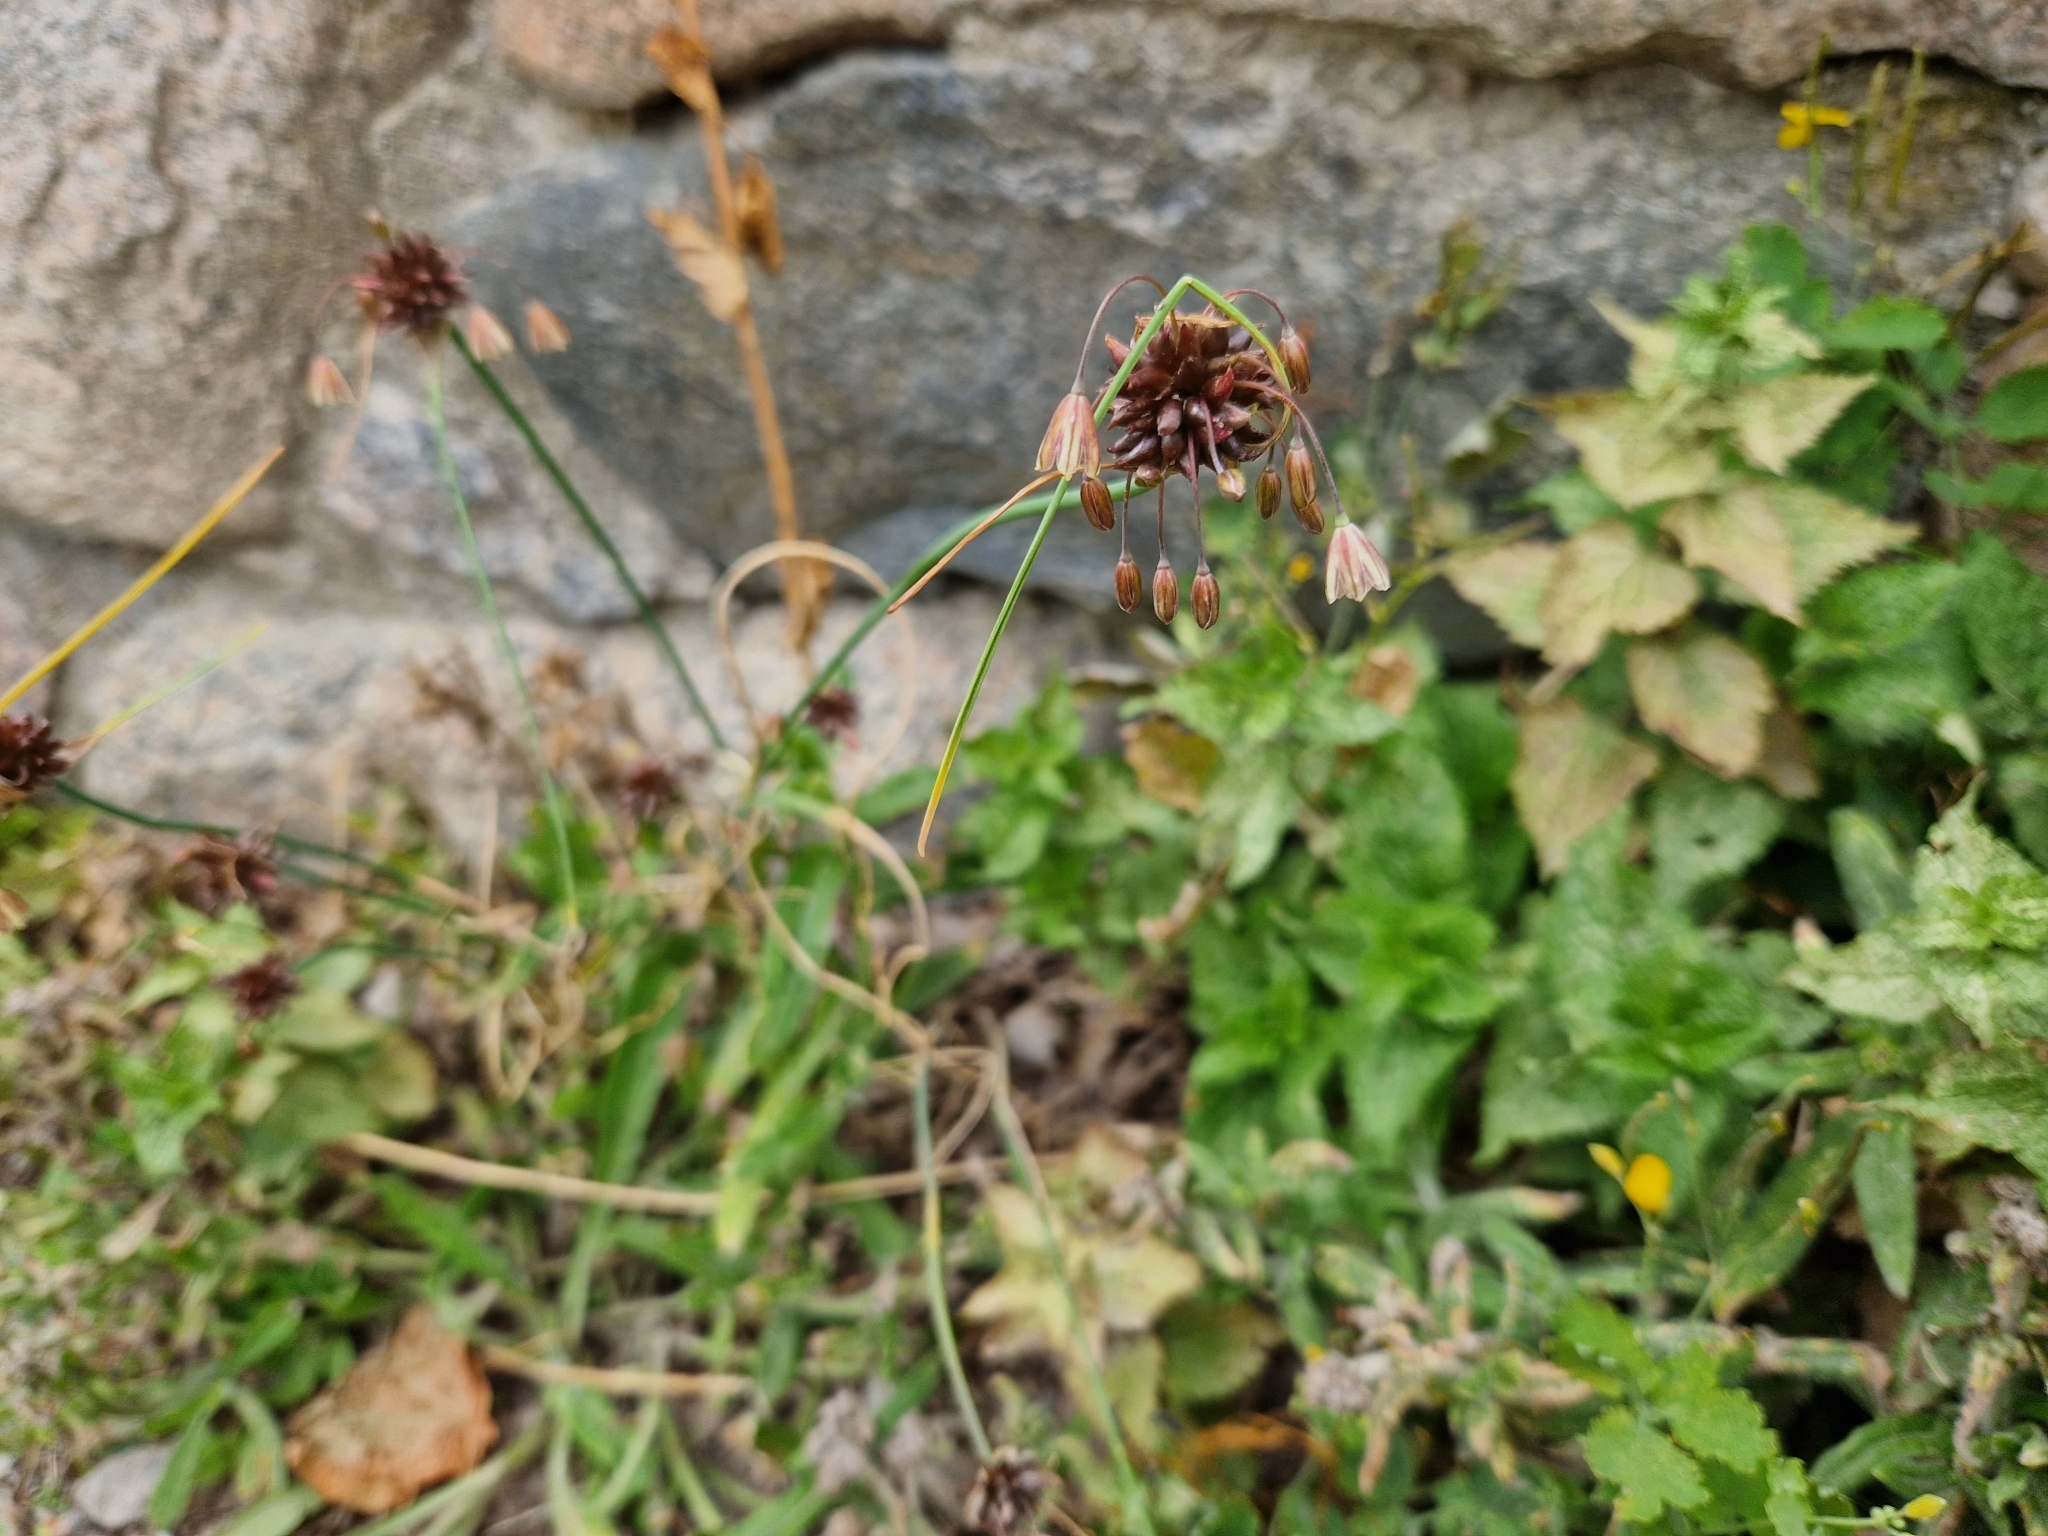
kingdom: Plantae
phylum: Tracheophyta
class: Liliopsida
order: Asparagales
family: Amaryllidaceae
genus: Allium
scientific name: Allium oleraceum
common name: Field garlic
